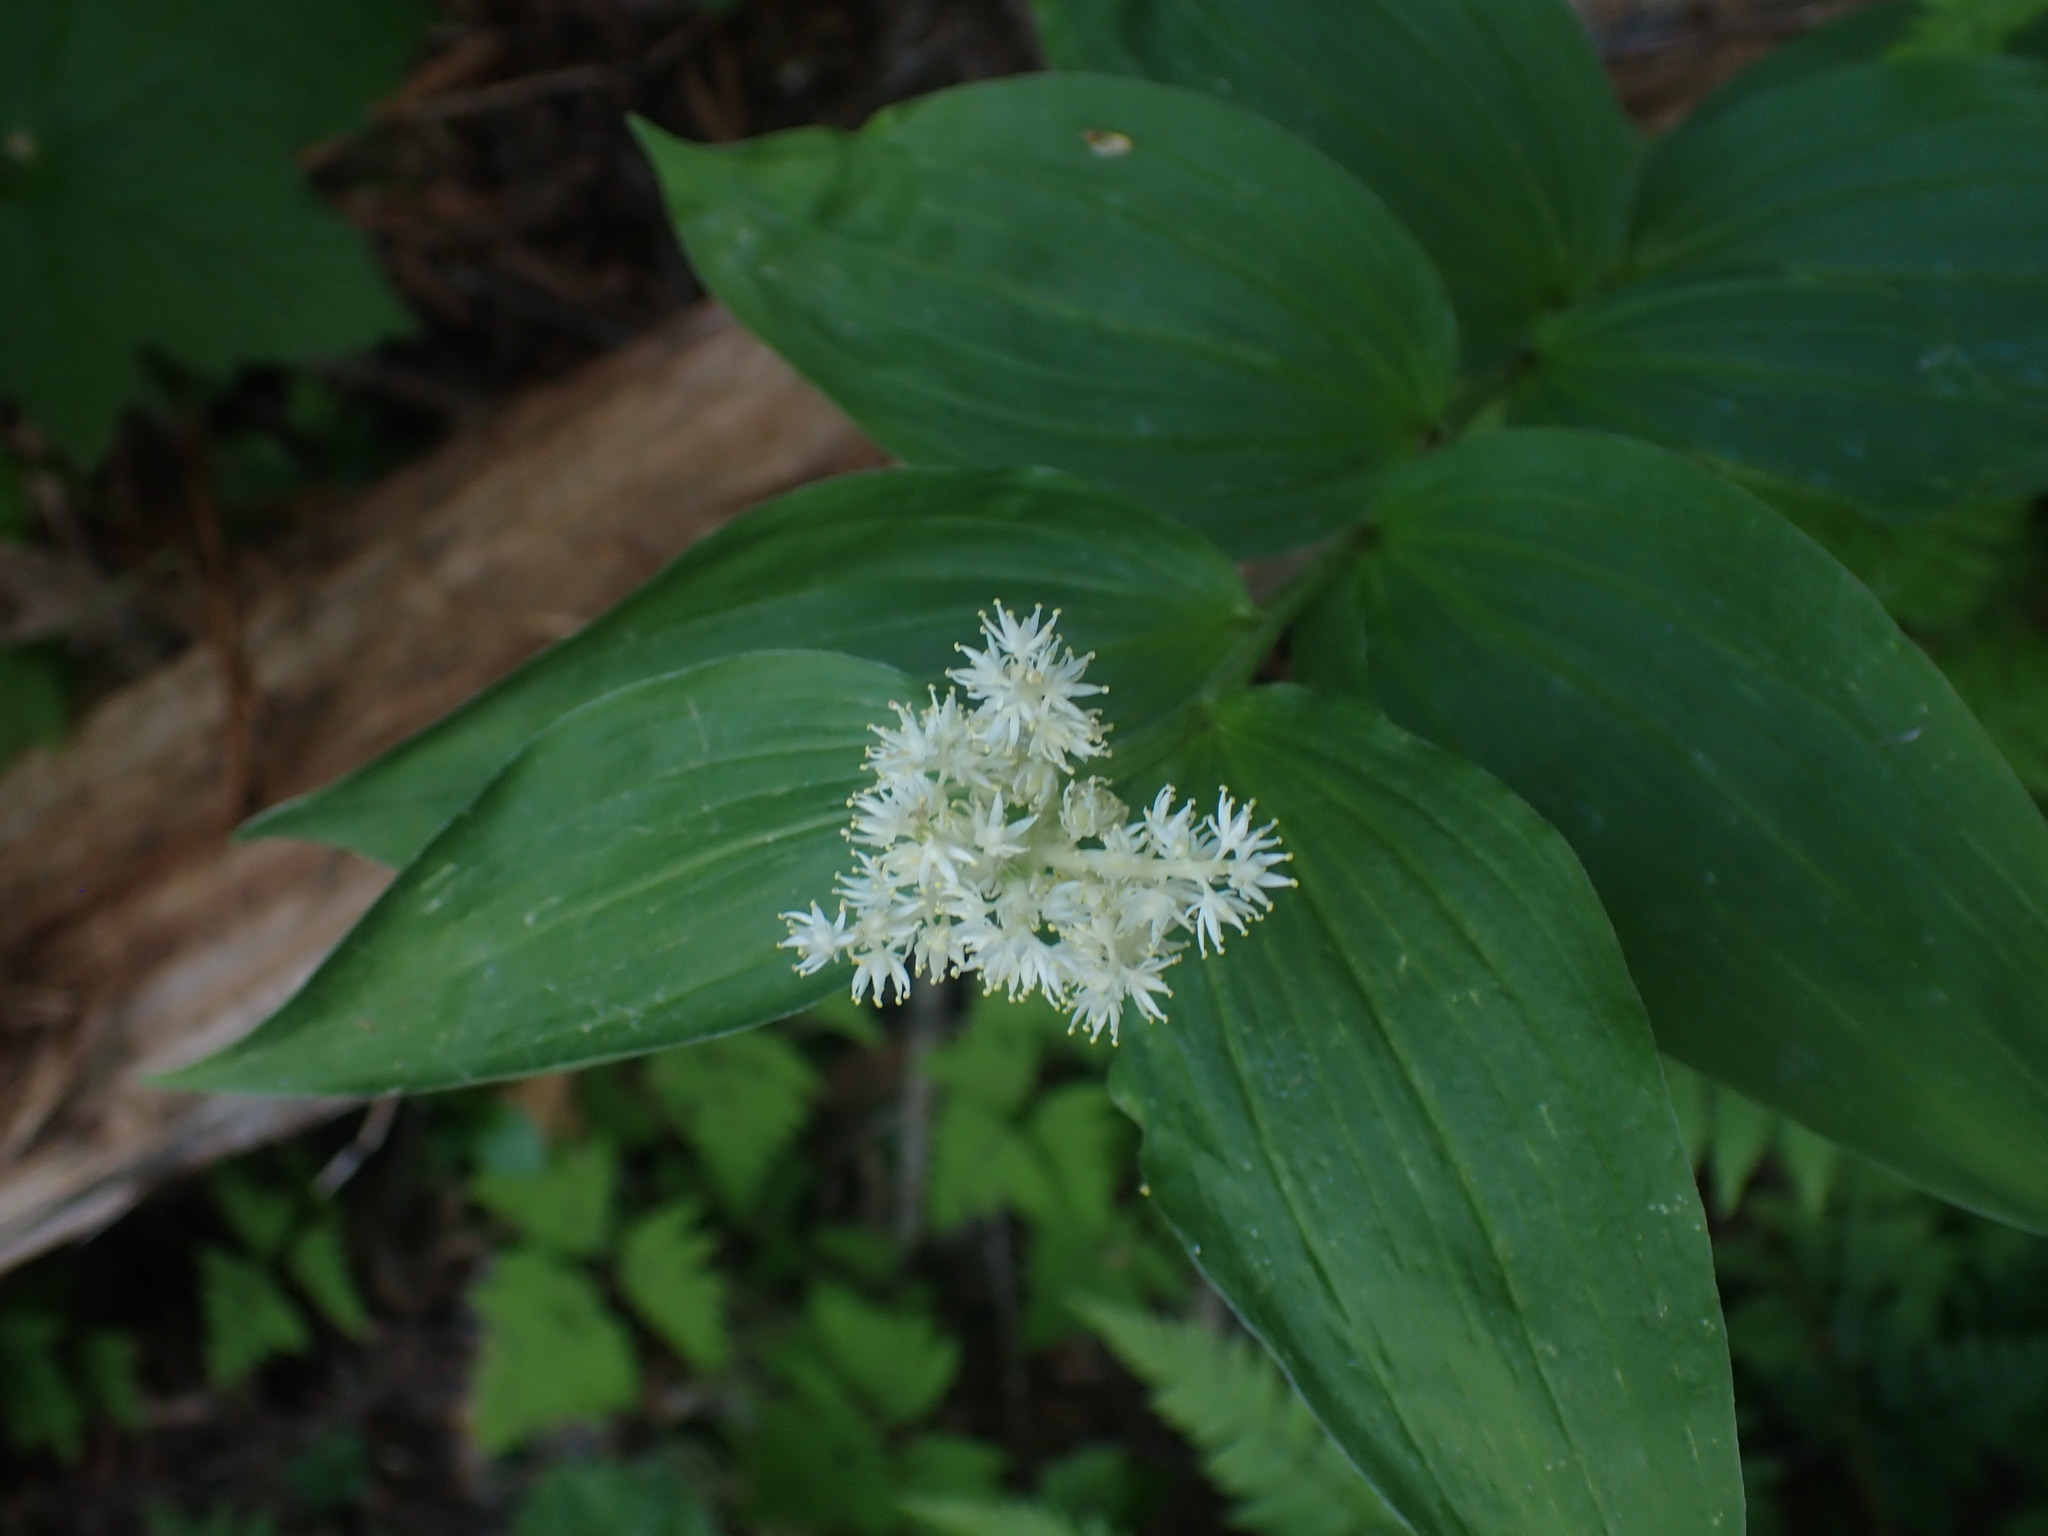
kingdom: Plantae
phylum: Tracheophyta
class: Liliopsida
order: Asparagales
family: Asparagaceae
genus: Maianthemum
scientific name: Maianthemum racemosum
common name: False spikenard
